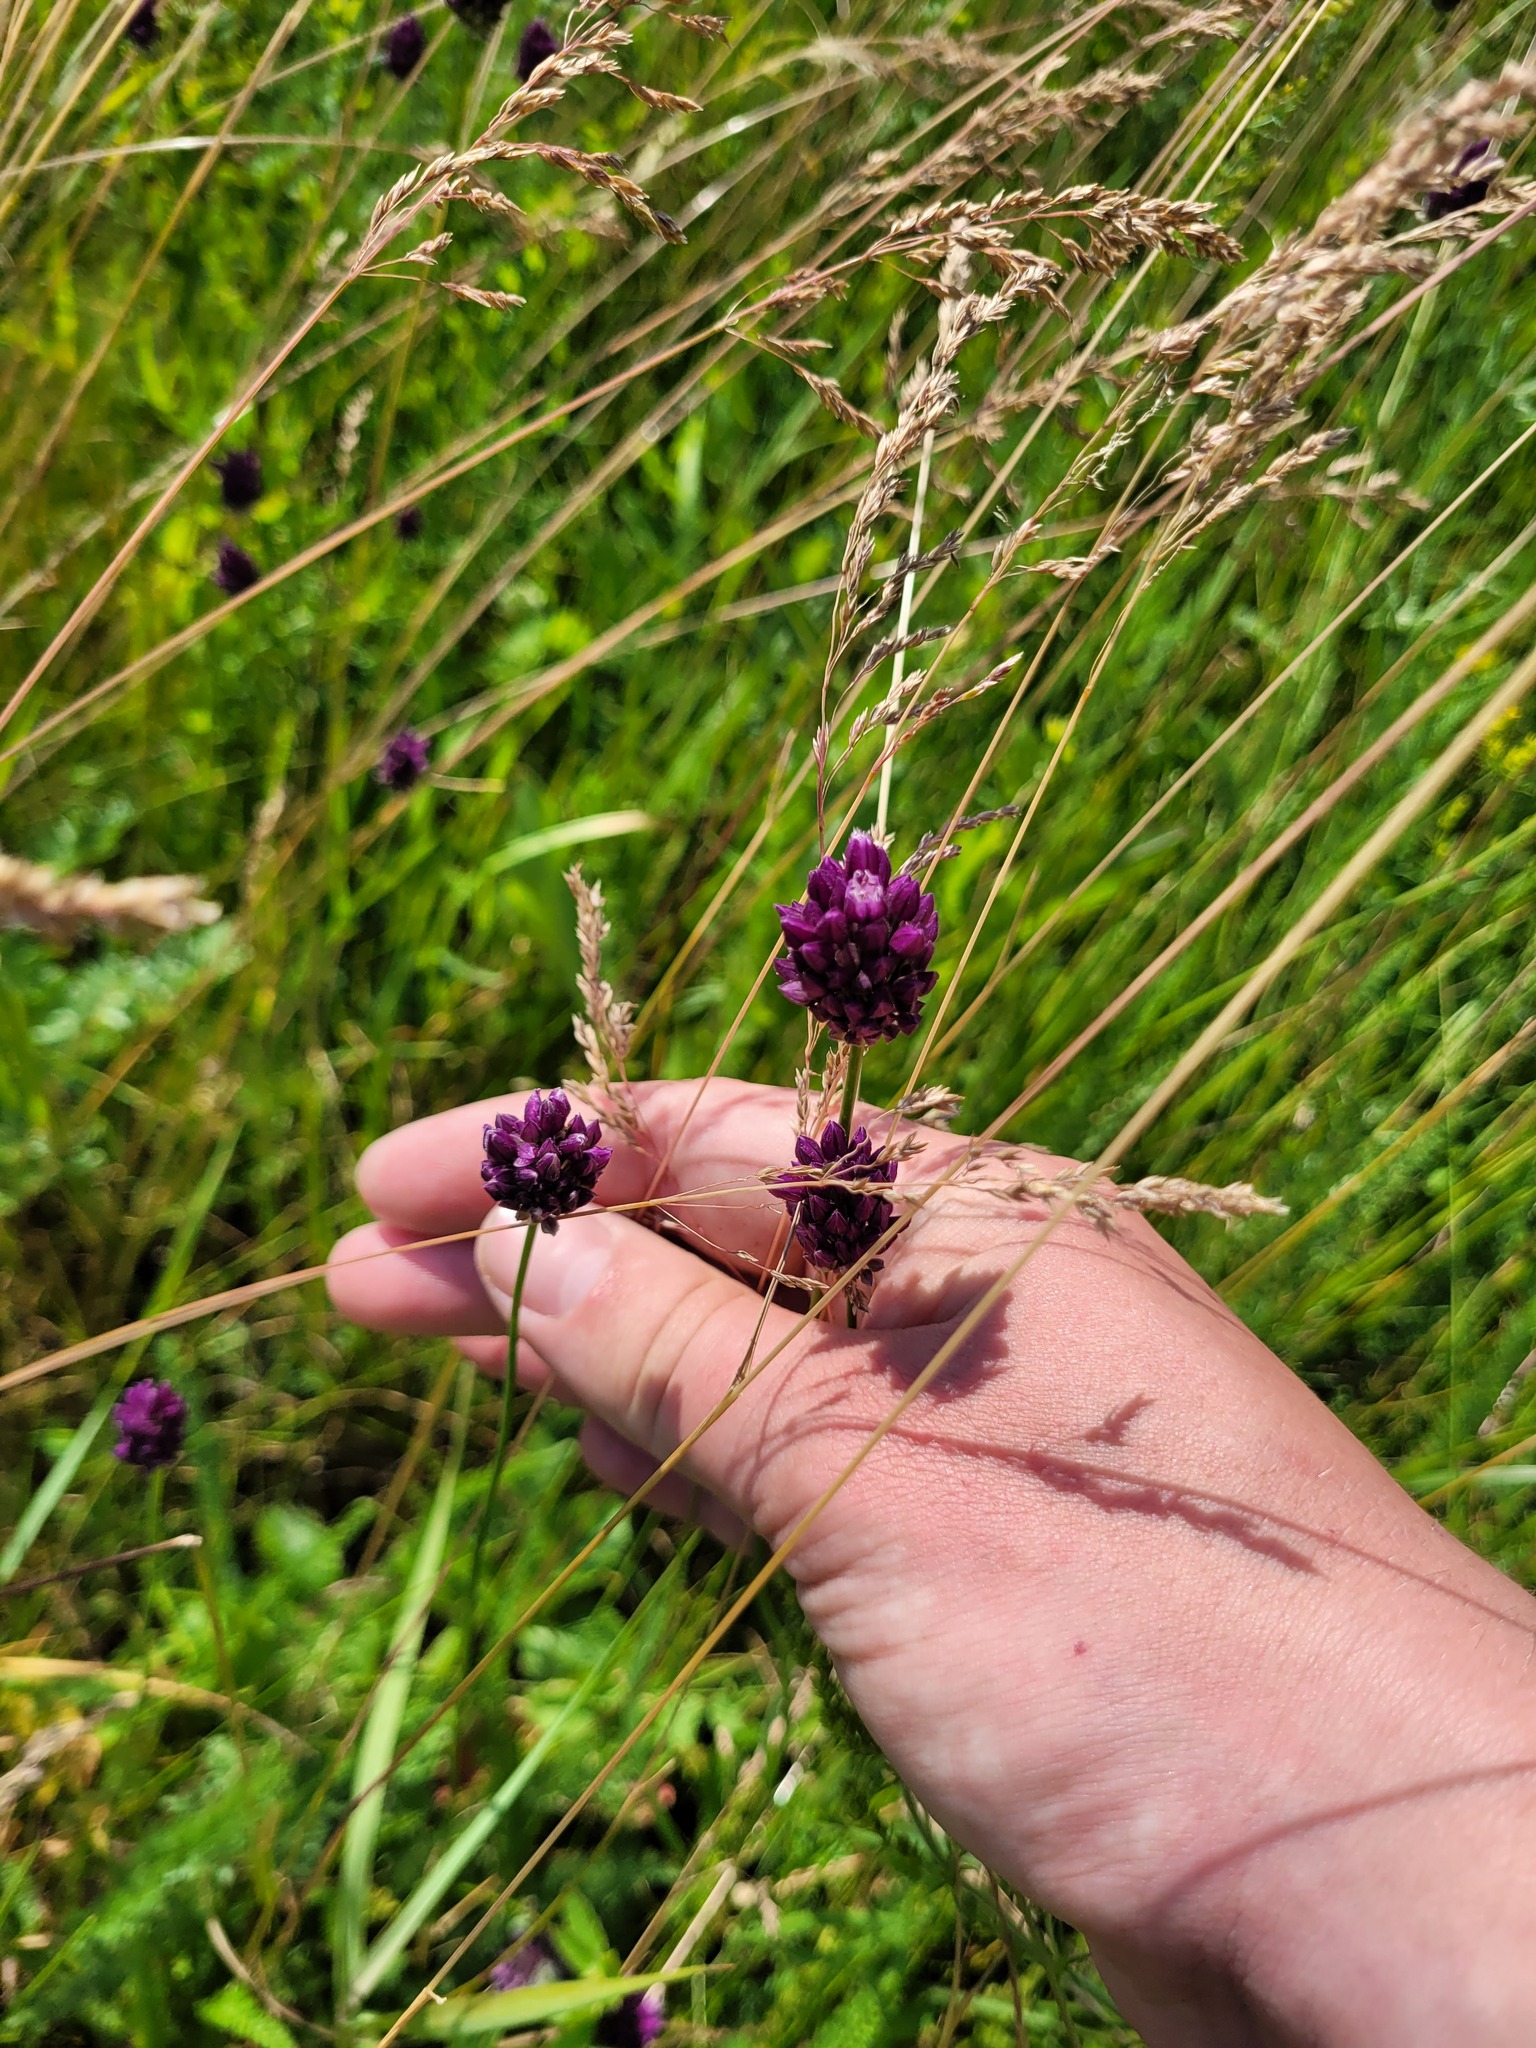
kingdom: Plantae
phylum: Tracheophyta
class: Liliopsida
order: Asparagales
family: Amaryllidaceae
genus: Allium
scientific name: Allium rotundum
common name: Sand leek
